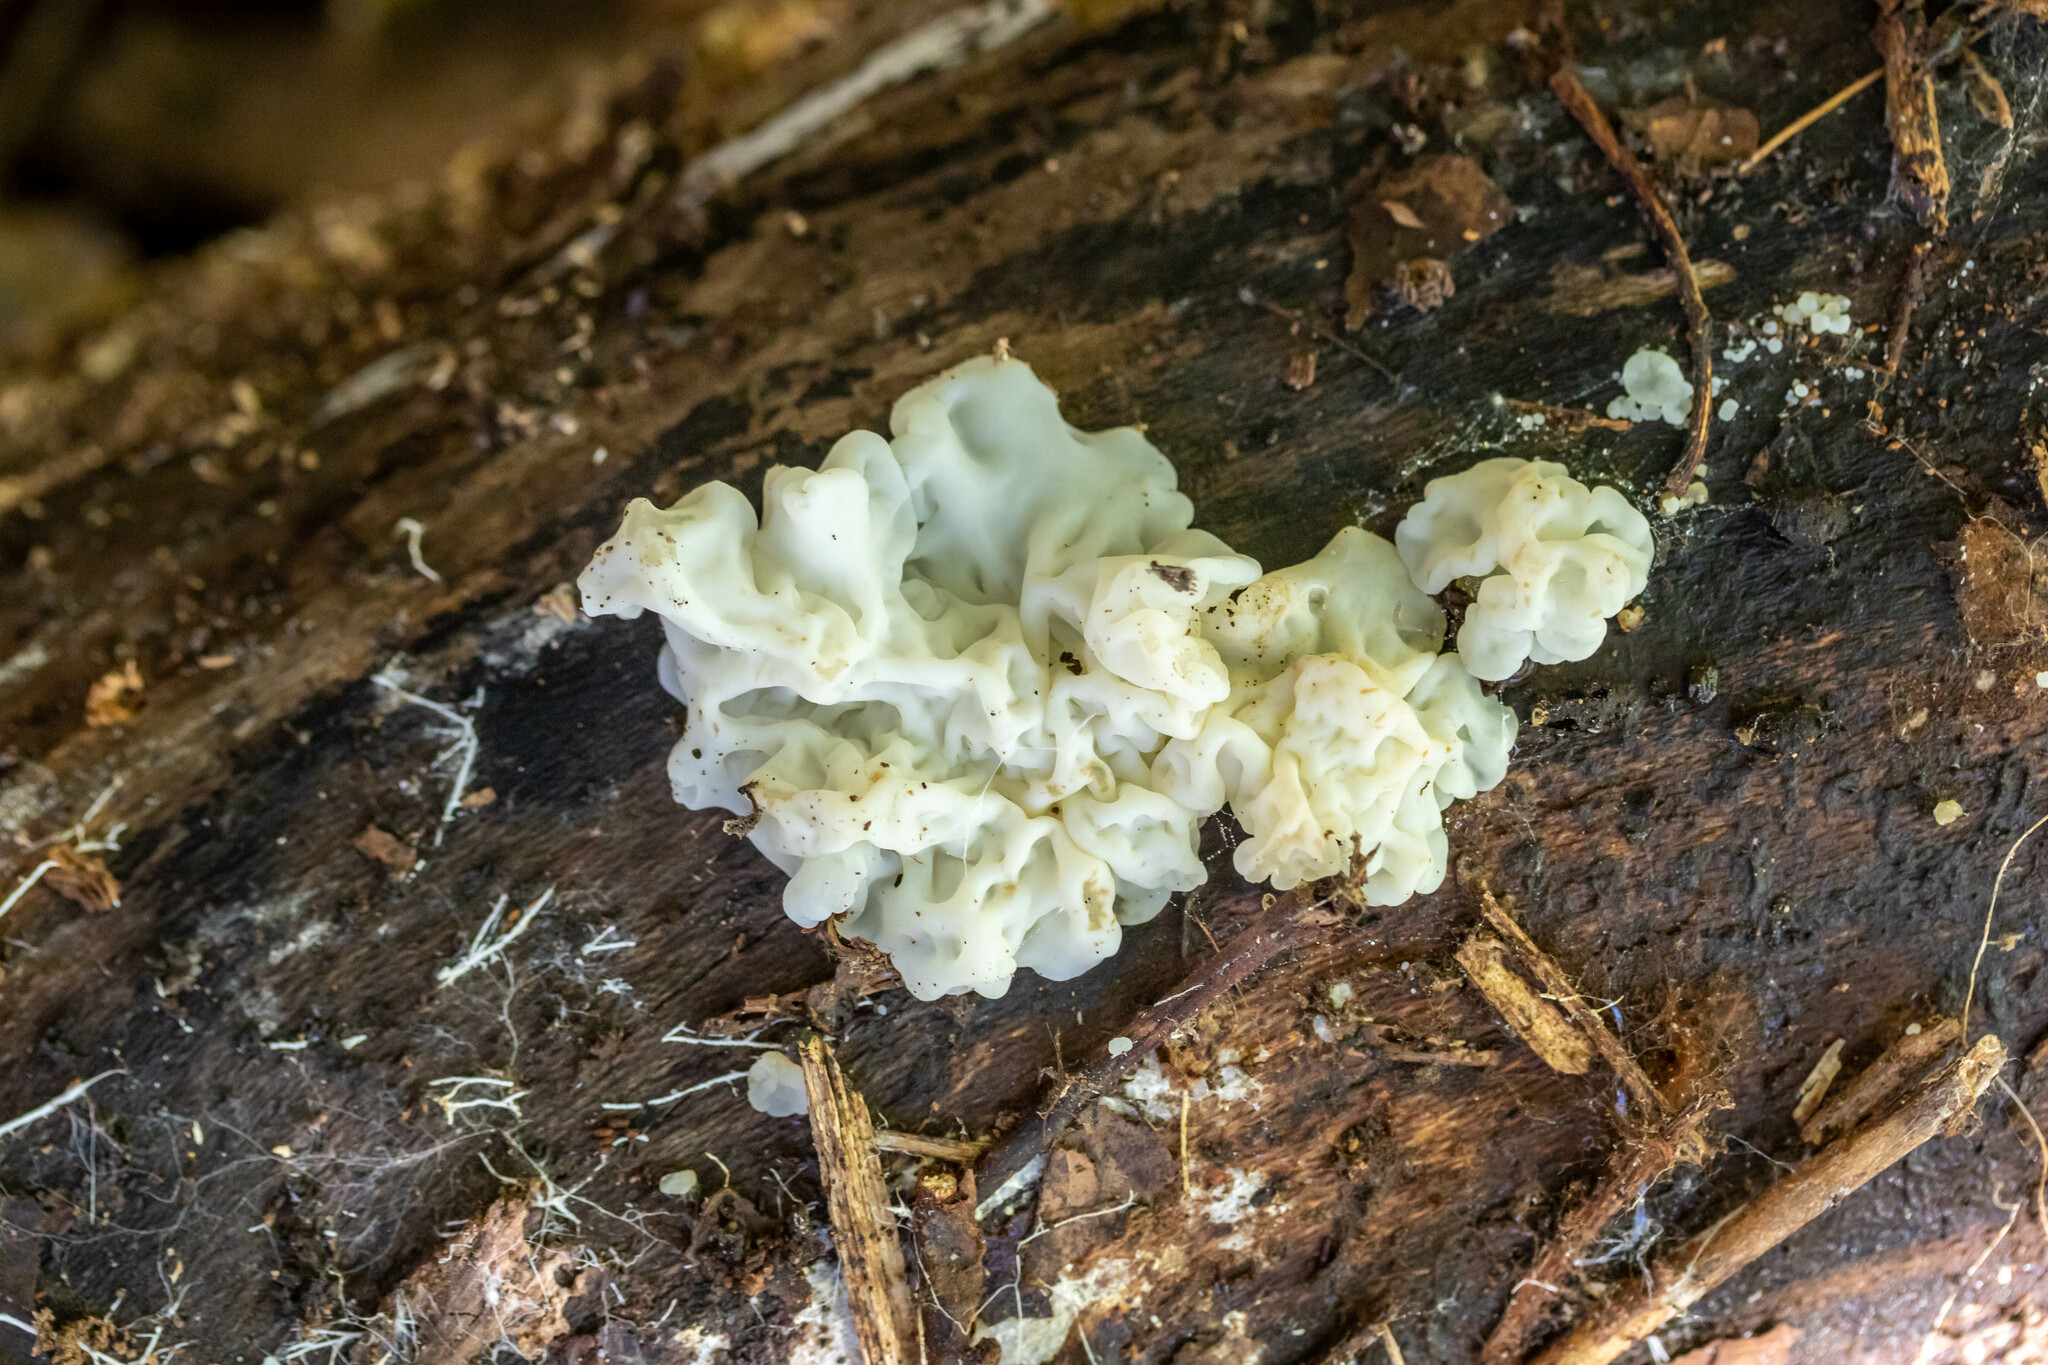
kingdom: Fungi
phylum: Basidiomycota
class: Agaricomycetes
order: Auriculariales
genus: Ductifera
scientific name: Ductifera pululahuana
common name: White jelly fungus
